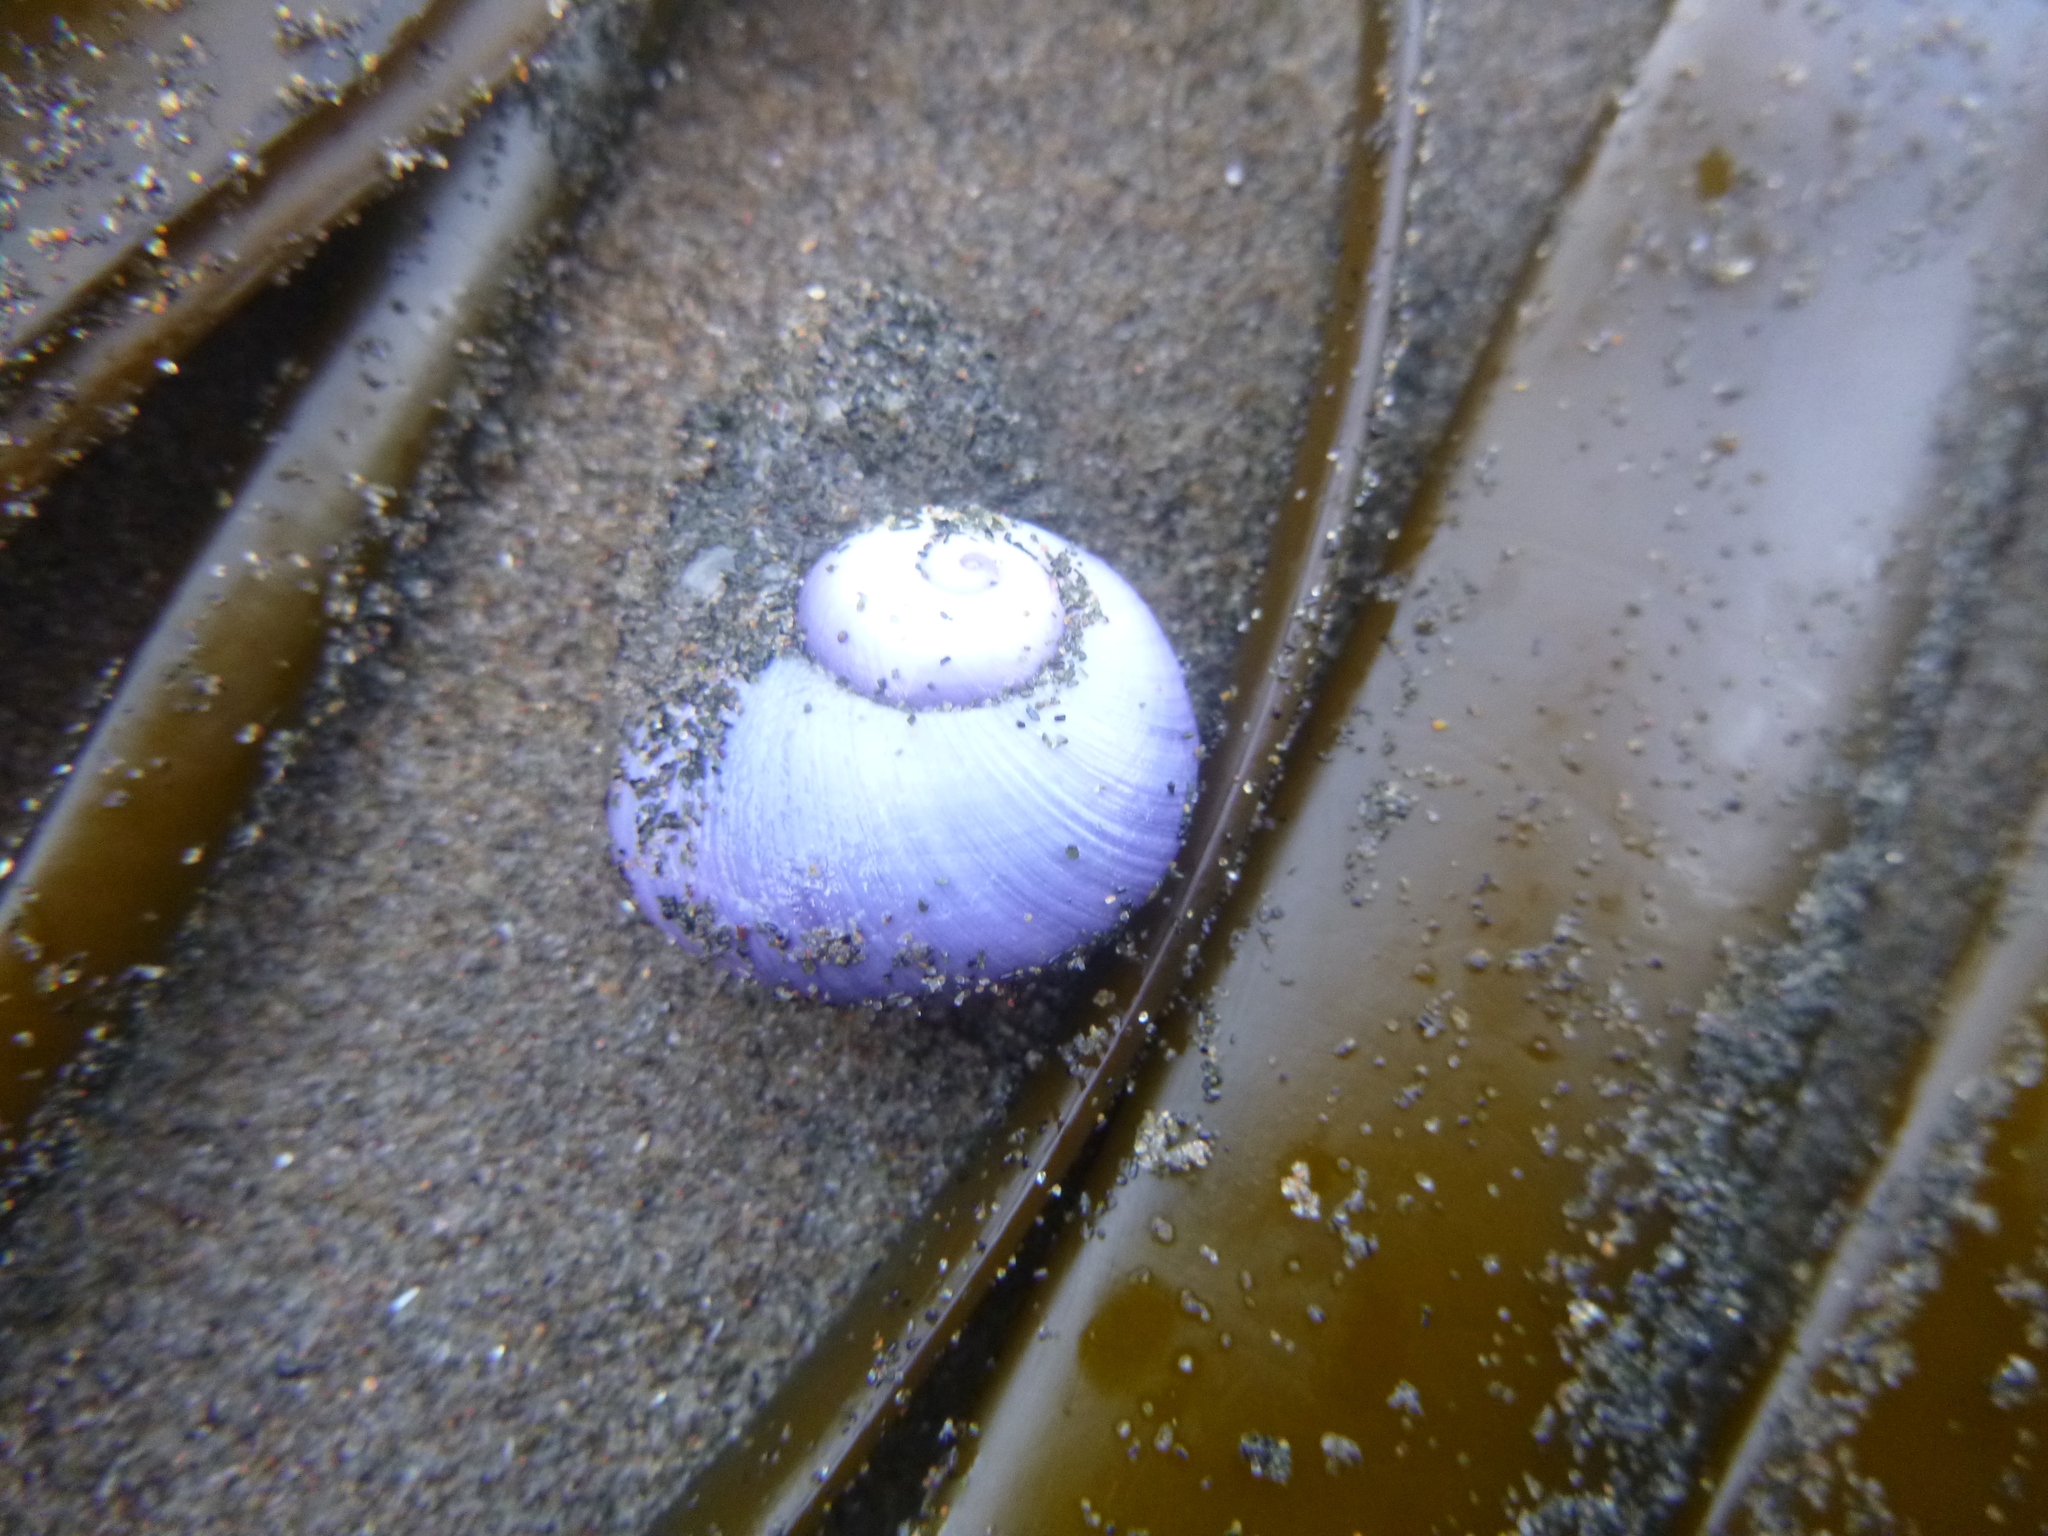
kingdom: Animalia
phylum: Mollusca
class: Gastropoda
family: Epitoniidae
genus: Janthina
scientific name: Janthina janthina
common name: Common janthina
